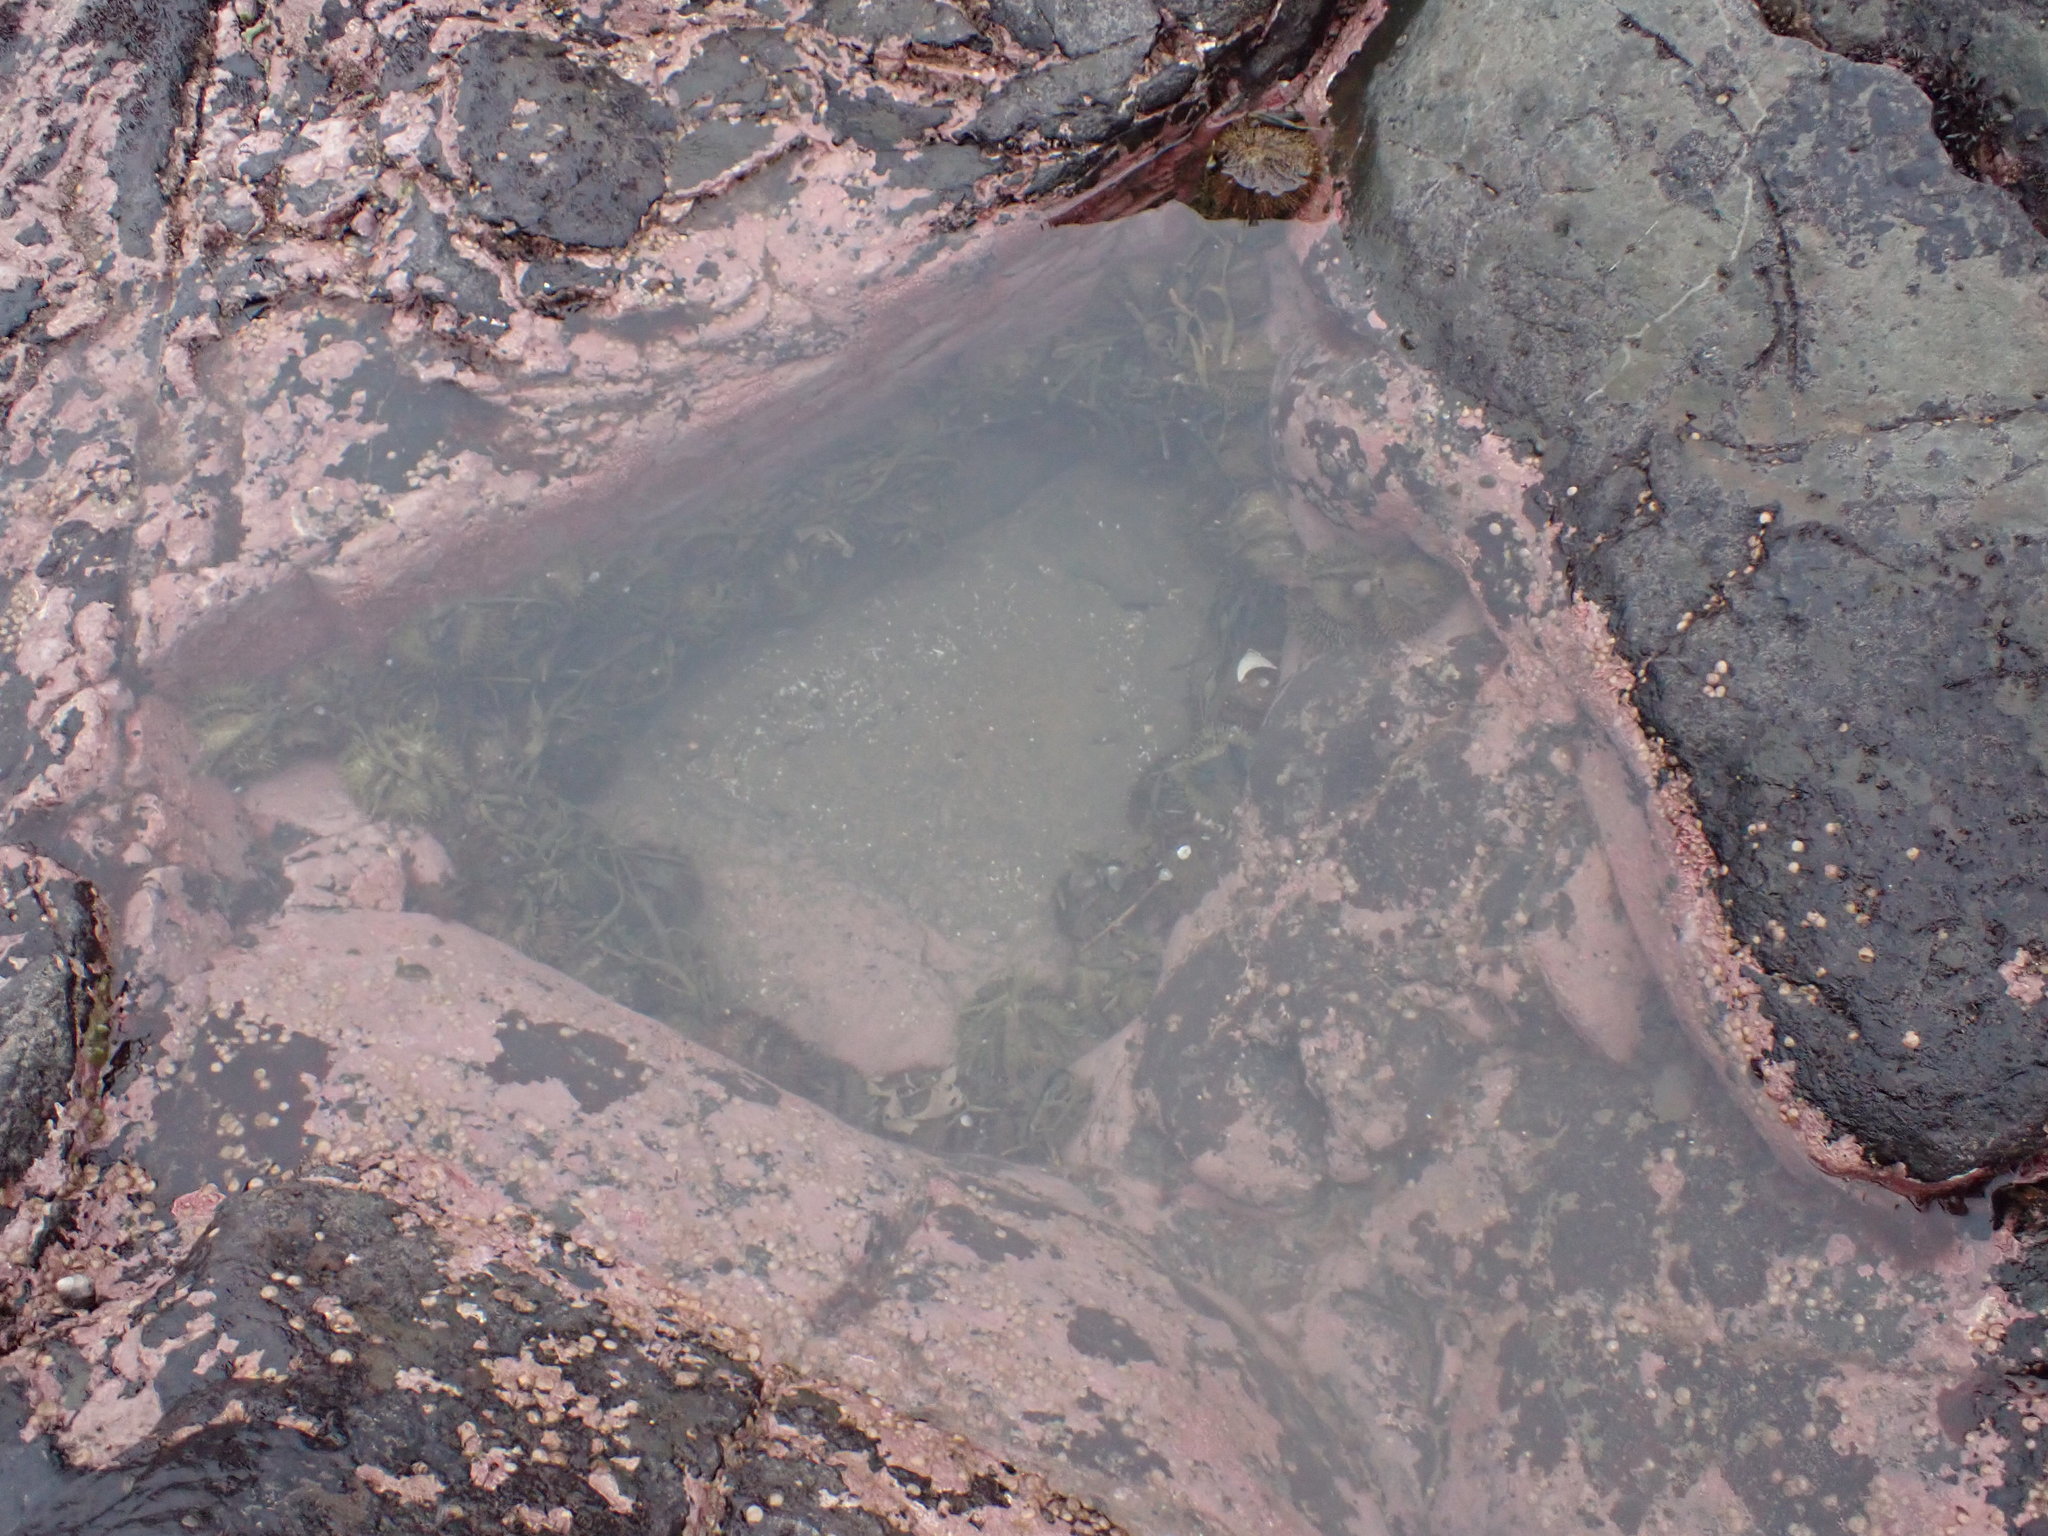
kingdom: Animalia
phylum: Echinodermata
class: Echinoidea
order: Camarodonta
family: Strongylocentrotidae
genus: Strongylocentrotus
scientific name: Strongylocentrotus droebachiensis
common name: Northern sea urchin
